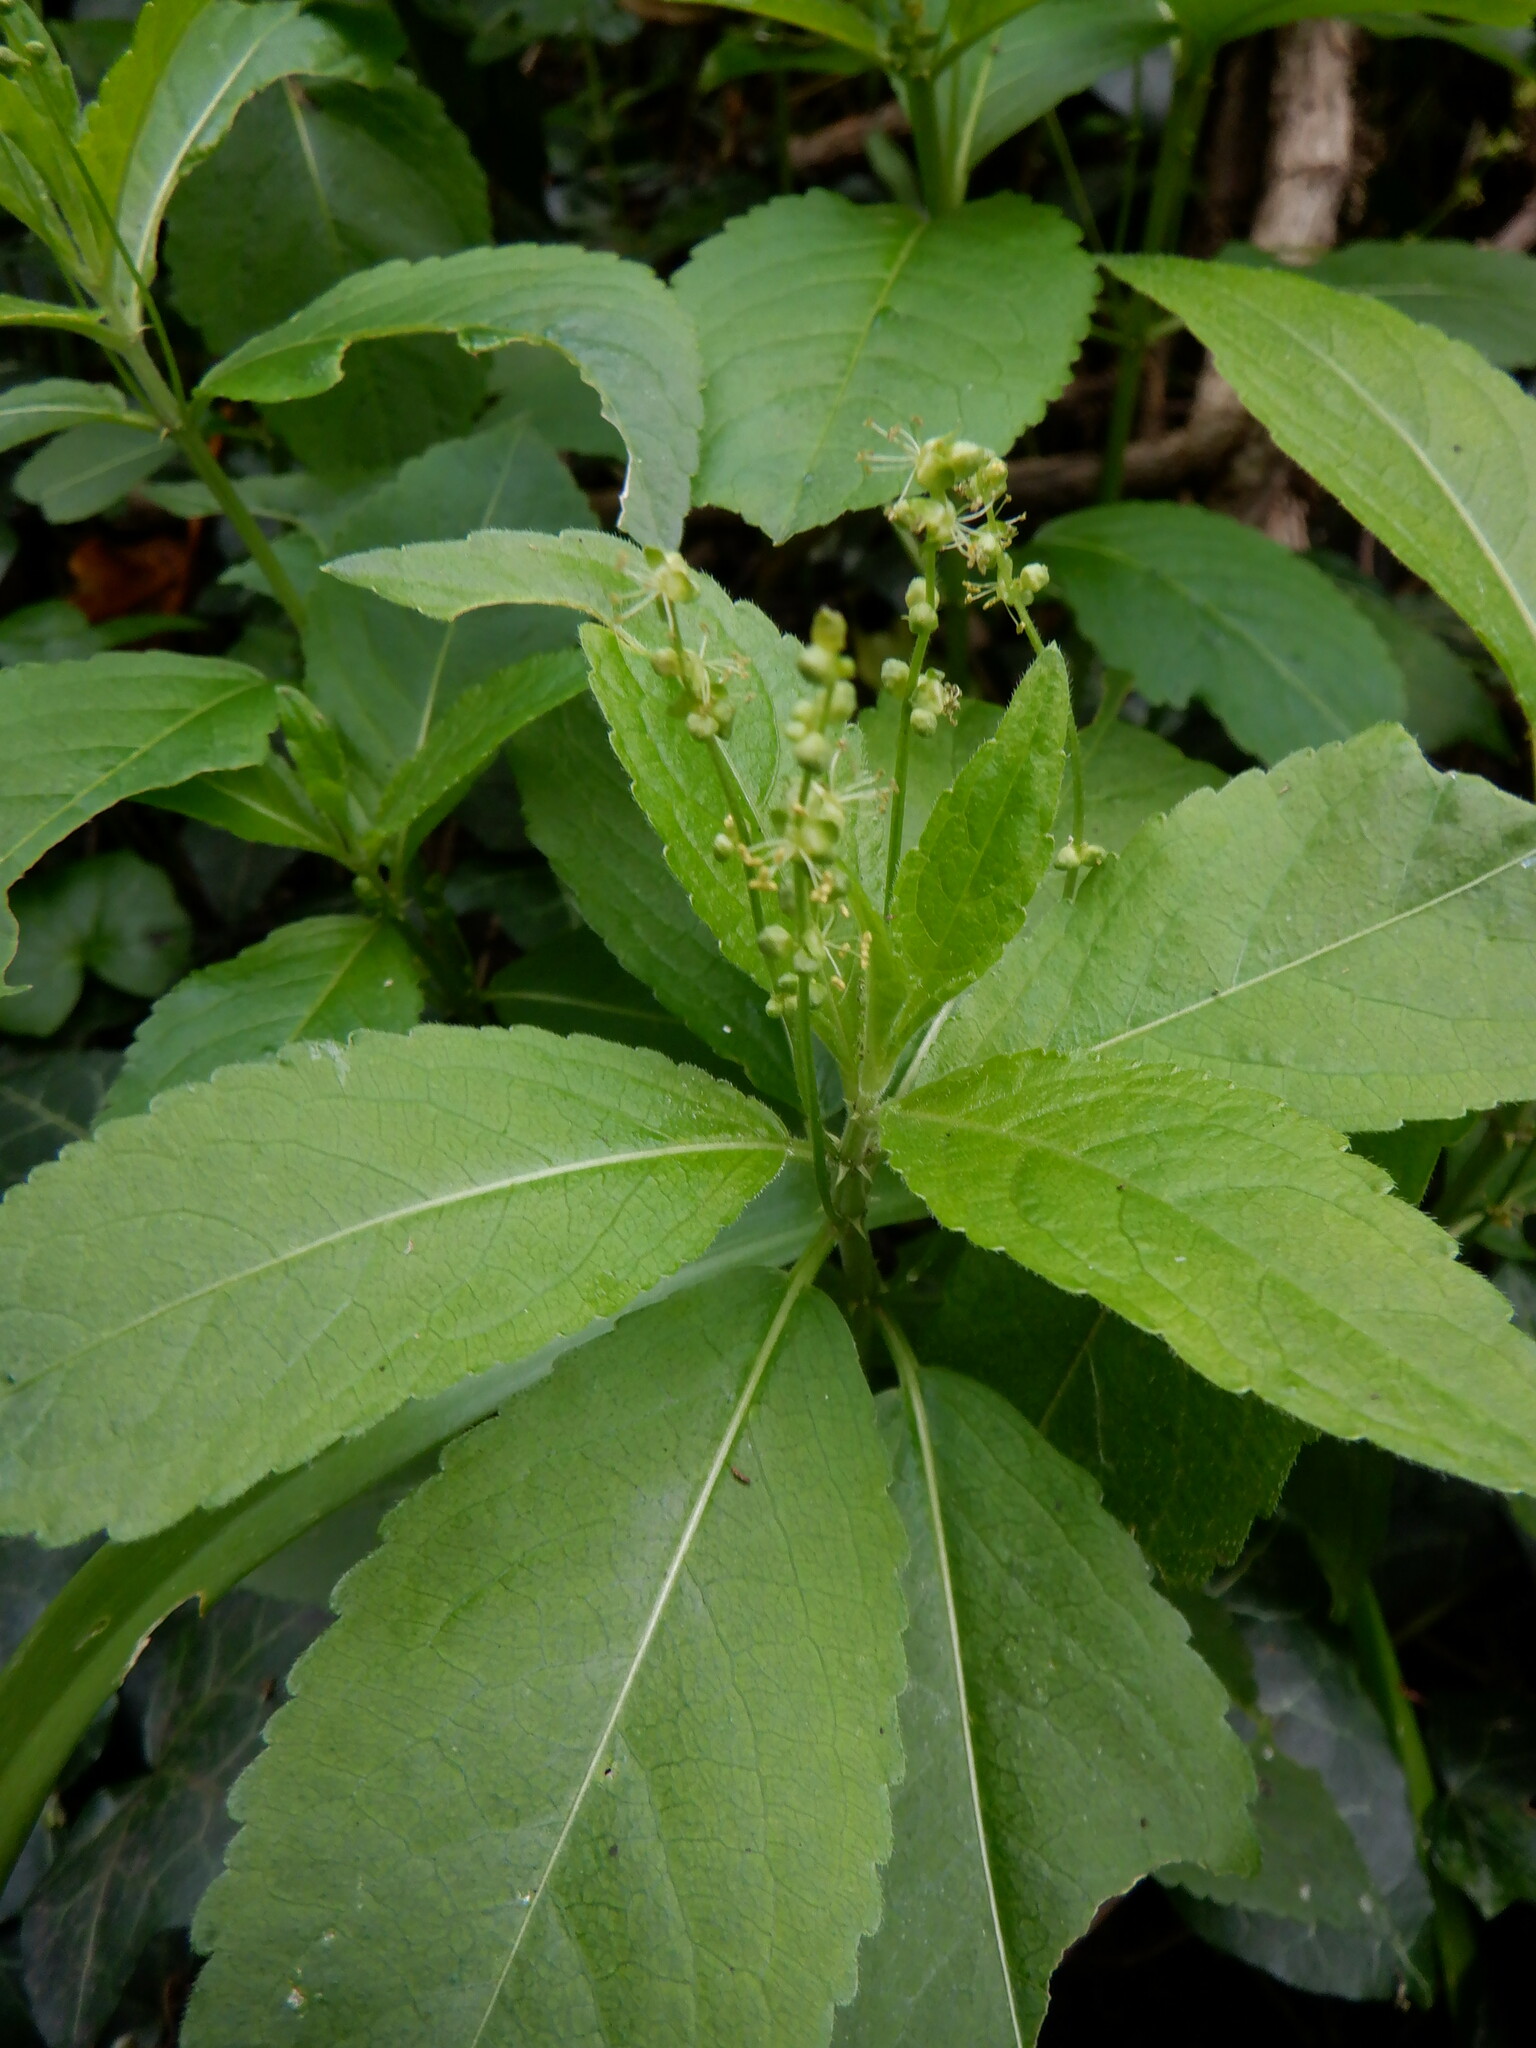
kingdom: Plantae
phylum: Tracheophyta
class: Magnoliopsida
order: Malpighiales
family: Euphorbiaceae
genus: Mercurialis
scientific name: Mercurialis perennis
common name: Dog mercury
